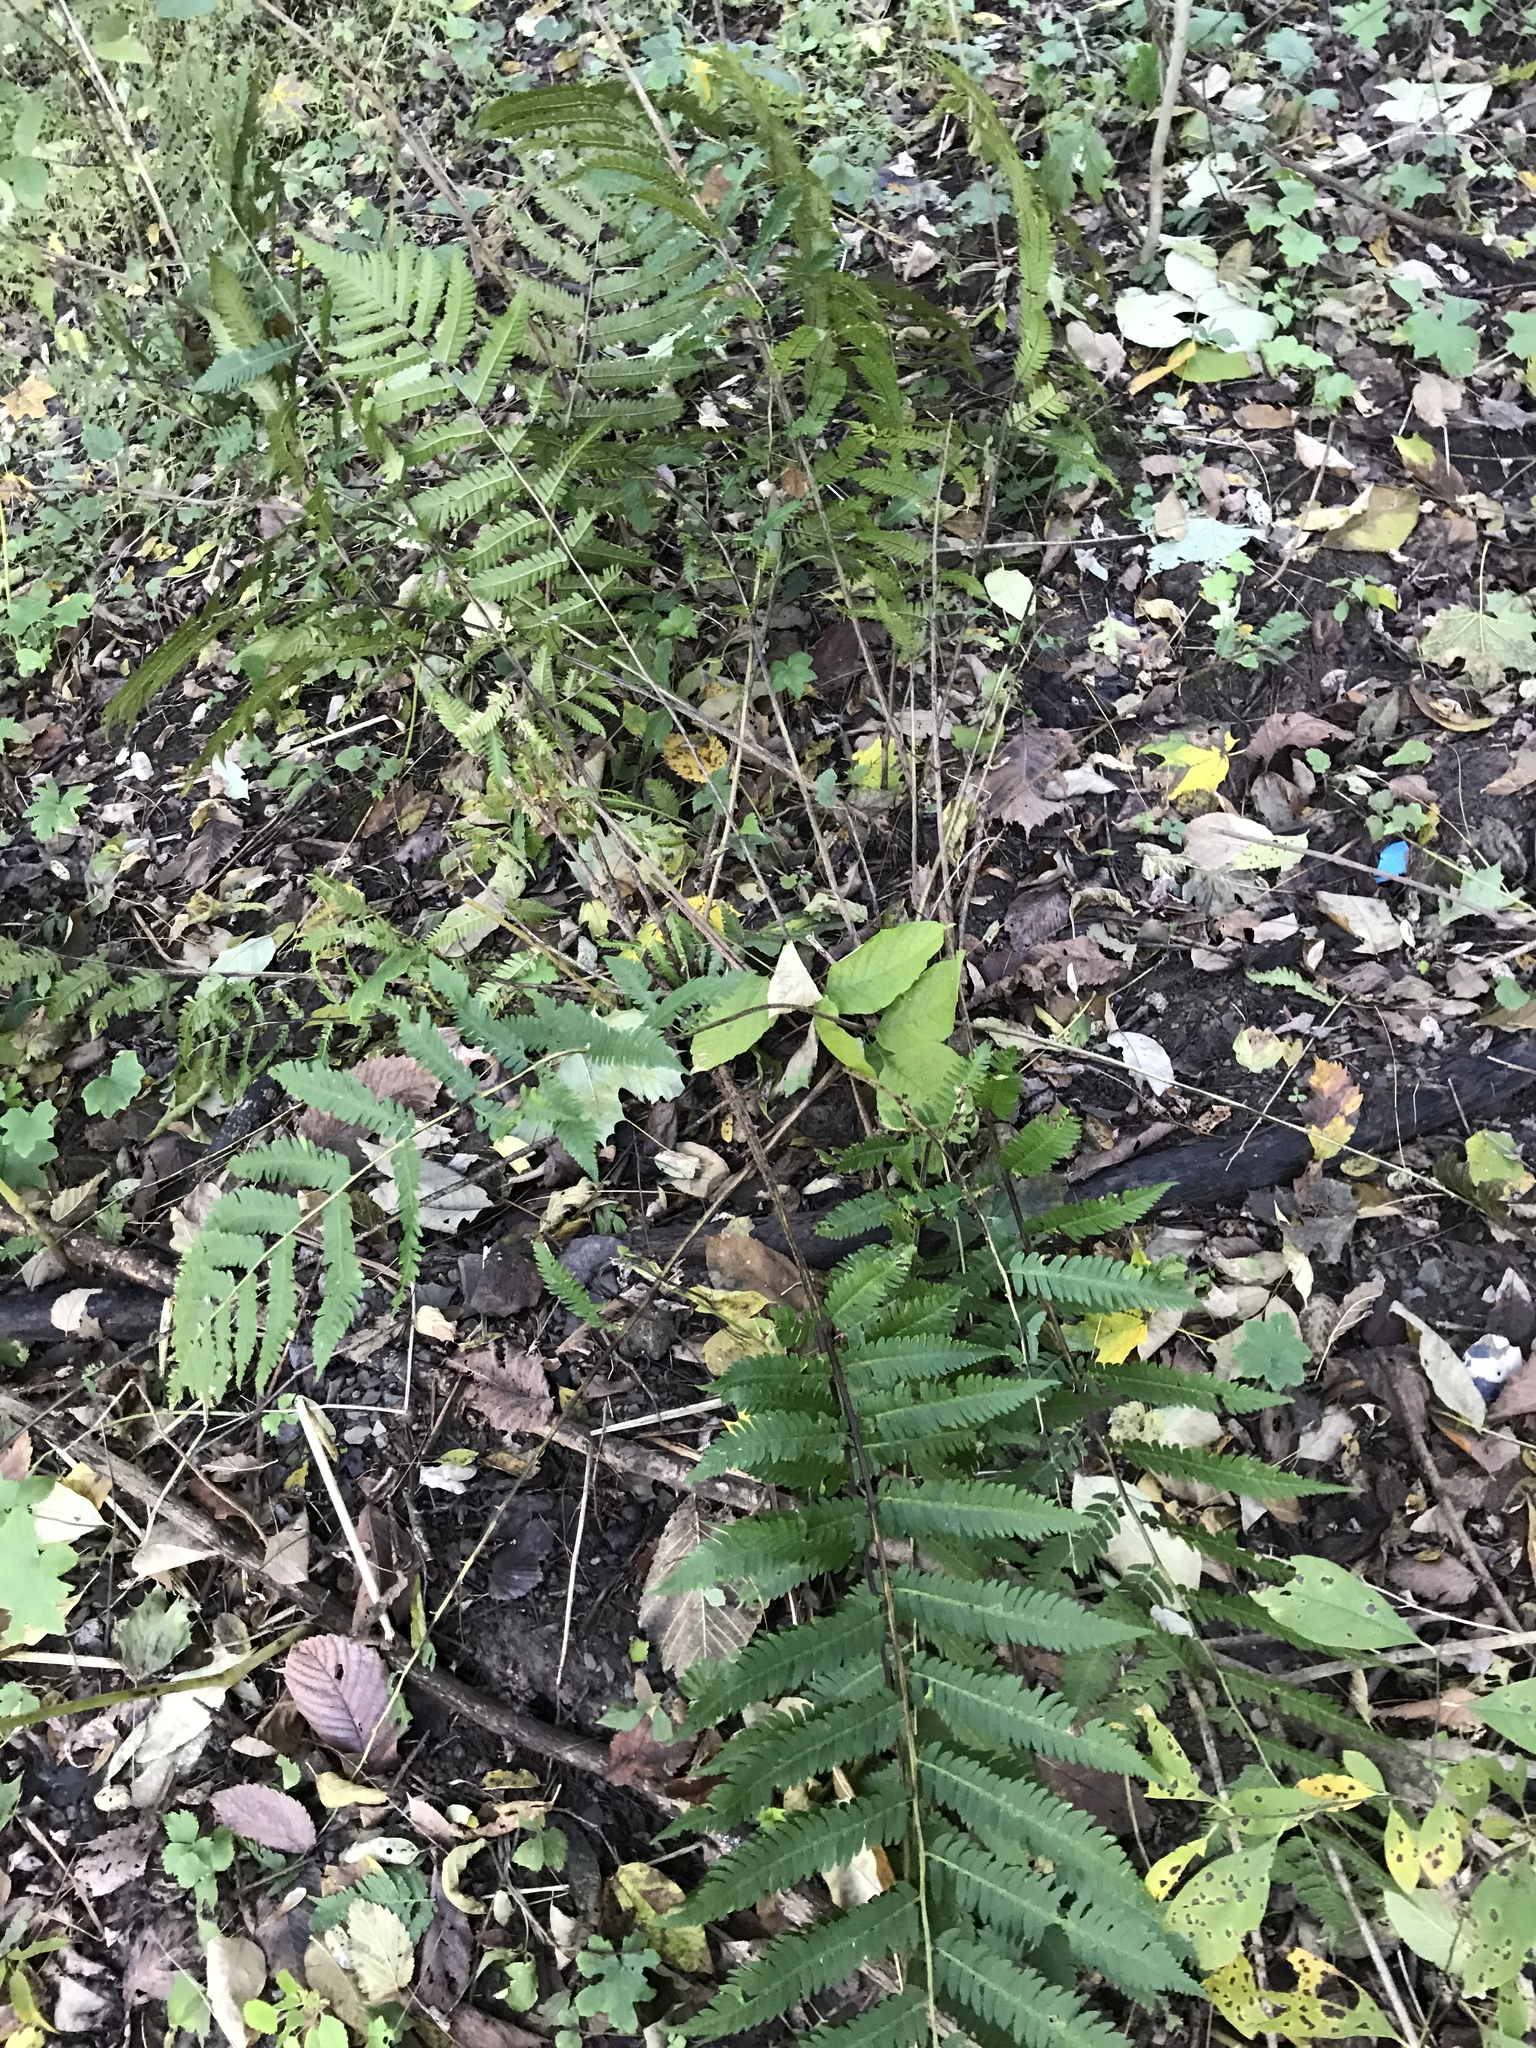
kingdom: Plantae
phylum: Tracheophyta
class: Polypodiopsida
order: Polypodiales
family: Dryopteridaceae
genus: Dryopteris
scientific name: Dryopteris goldieana
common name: Goldie's fern
